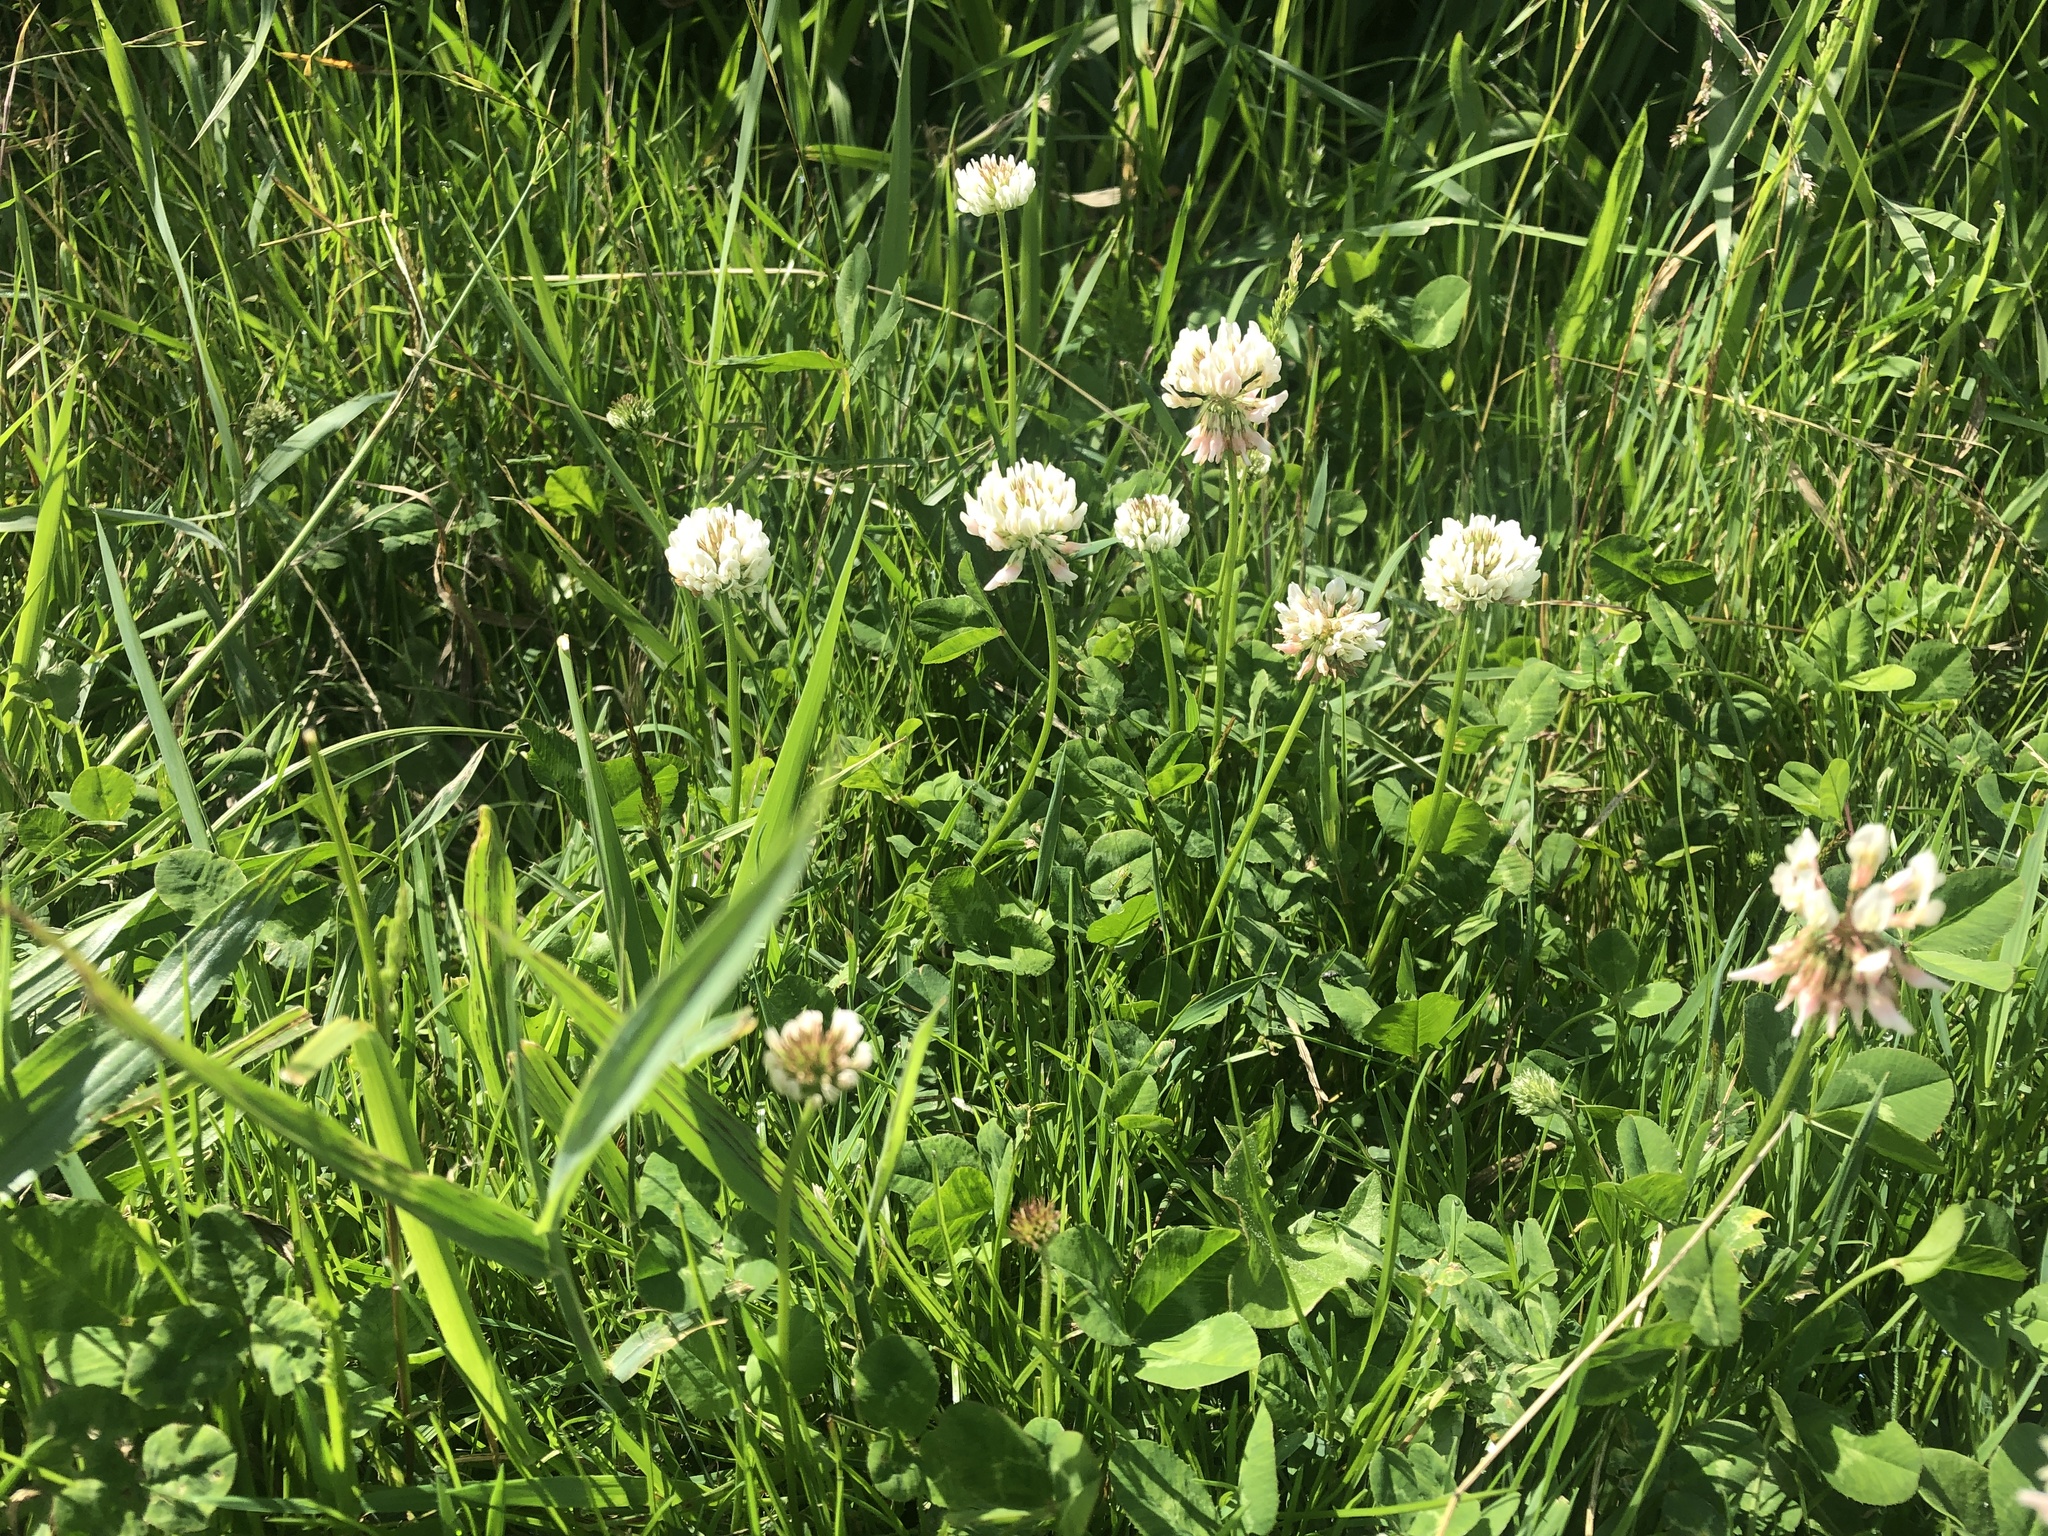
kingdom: Plantae
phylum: Tracheophyta
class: Magnoliopsida
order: Fabales
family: Fabaceae
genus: Trifolium
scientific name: Trifolium repens
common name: White clover
